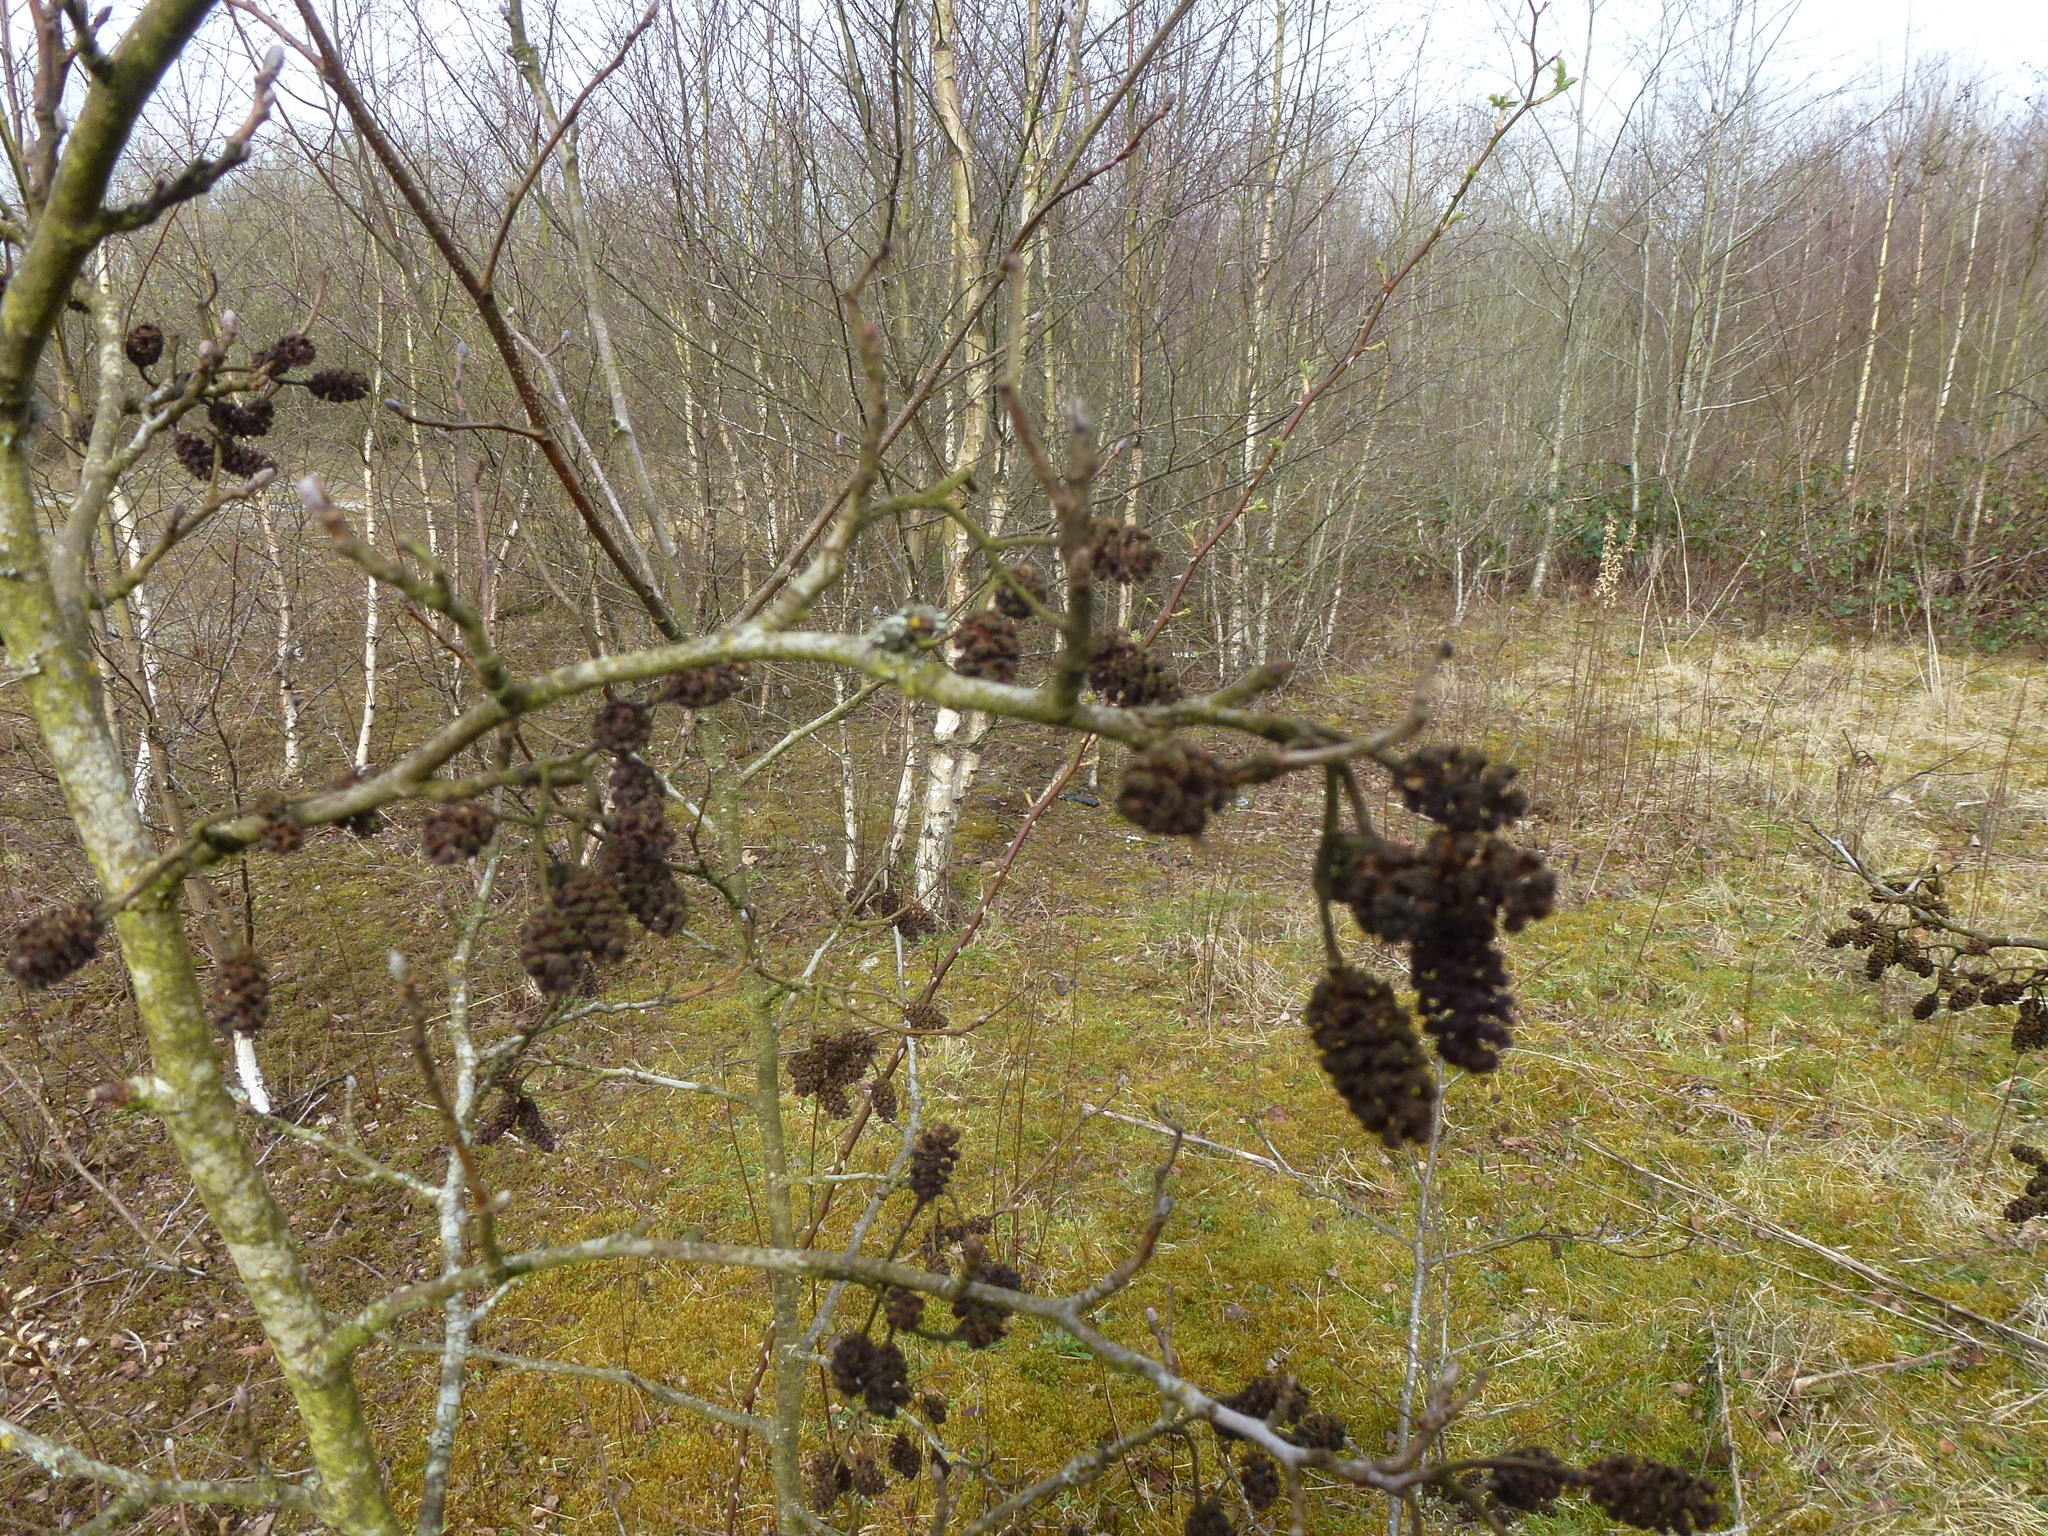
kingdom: Plantae
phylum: Tracheophyta
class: Magnoliopsida
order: Fagales
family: Betulaceae
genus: Alnus
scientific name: Alnus glutinosa
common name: Black alder
